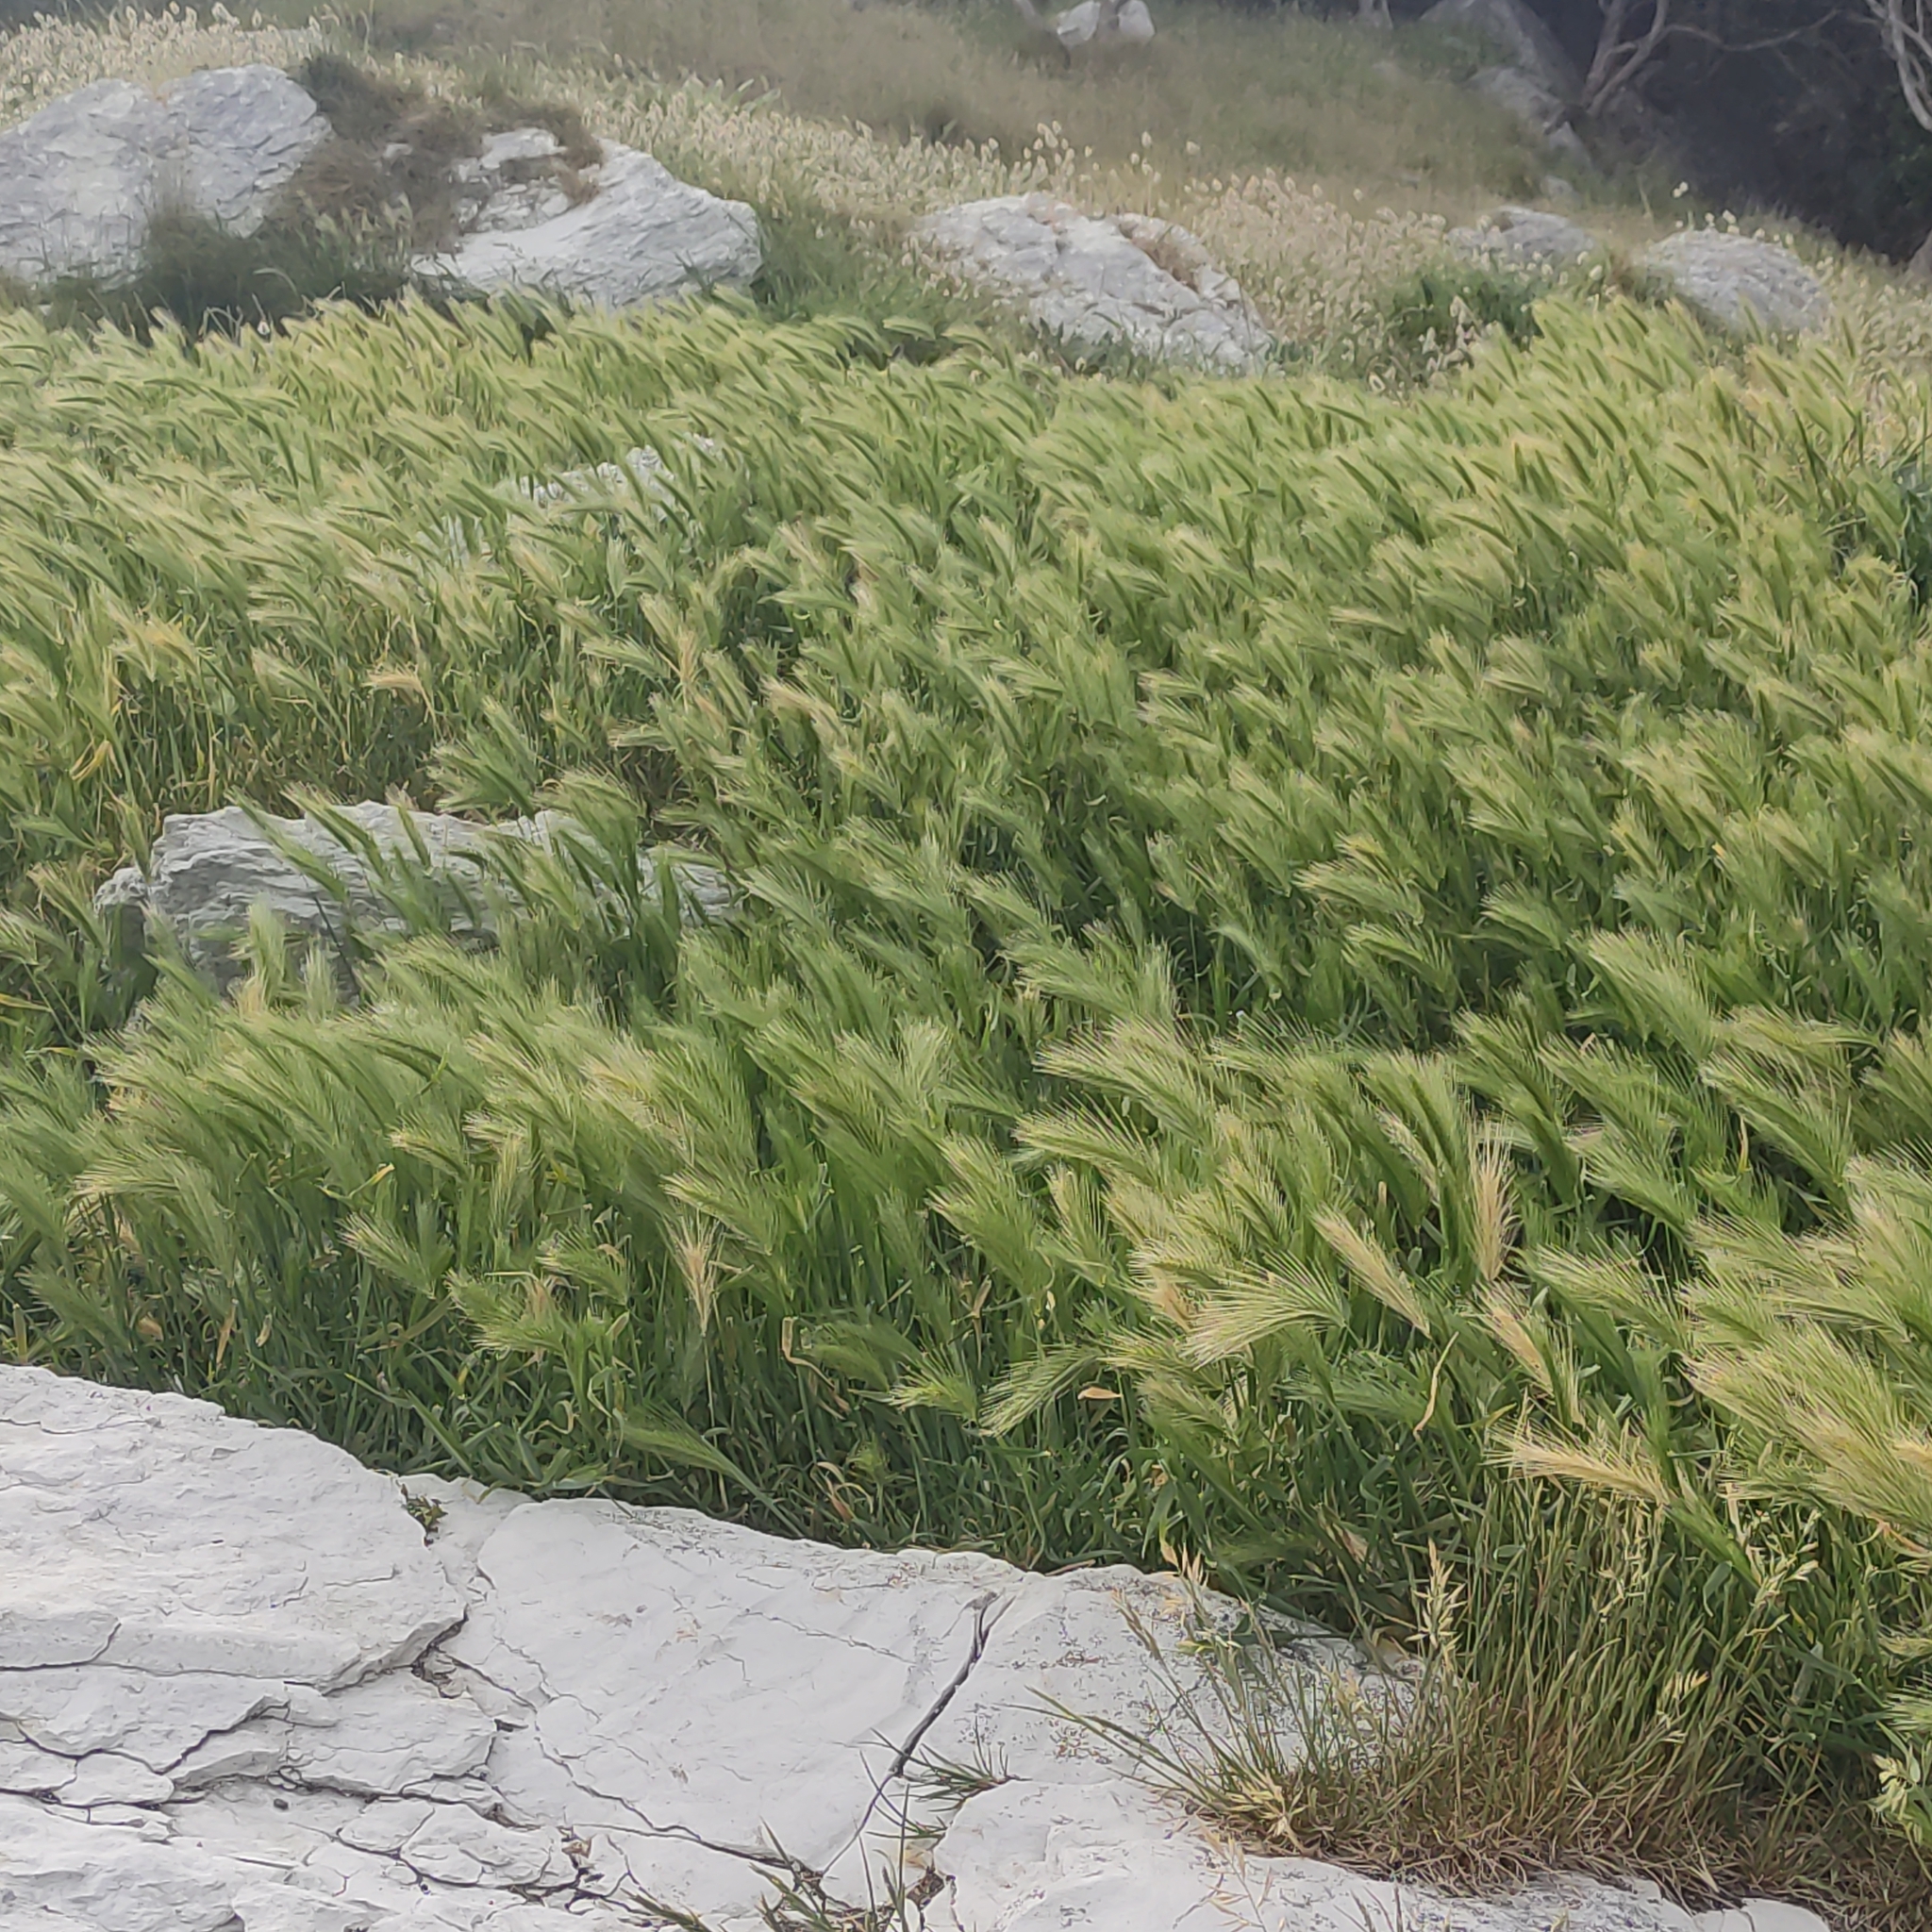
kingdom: Plantae
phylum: Tracheophyta
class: Liliopsida
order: Poales
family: Poaceae
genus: Hordeum
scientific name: Hordeum murinum
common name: Wall barley
